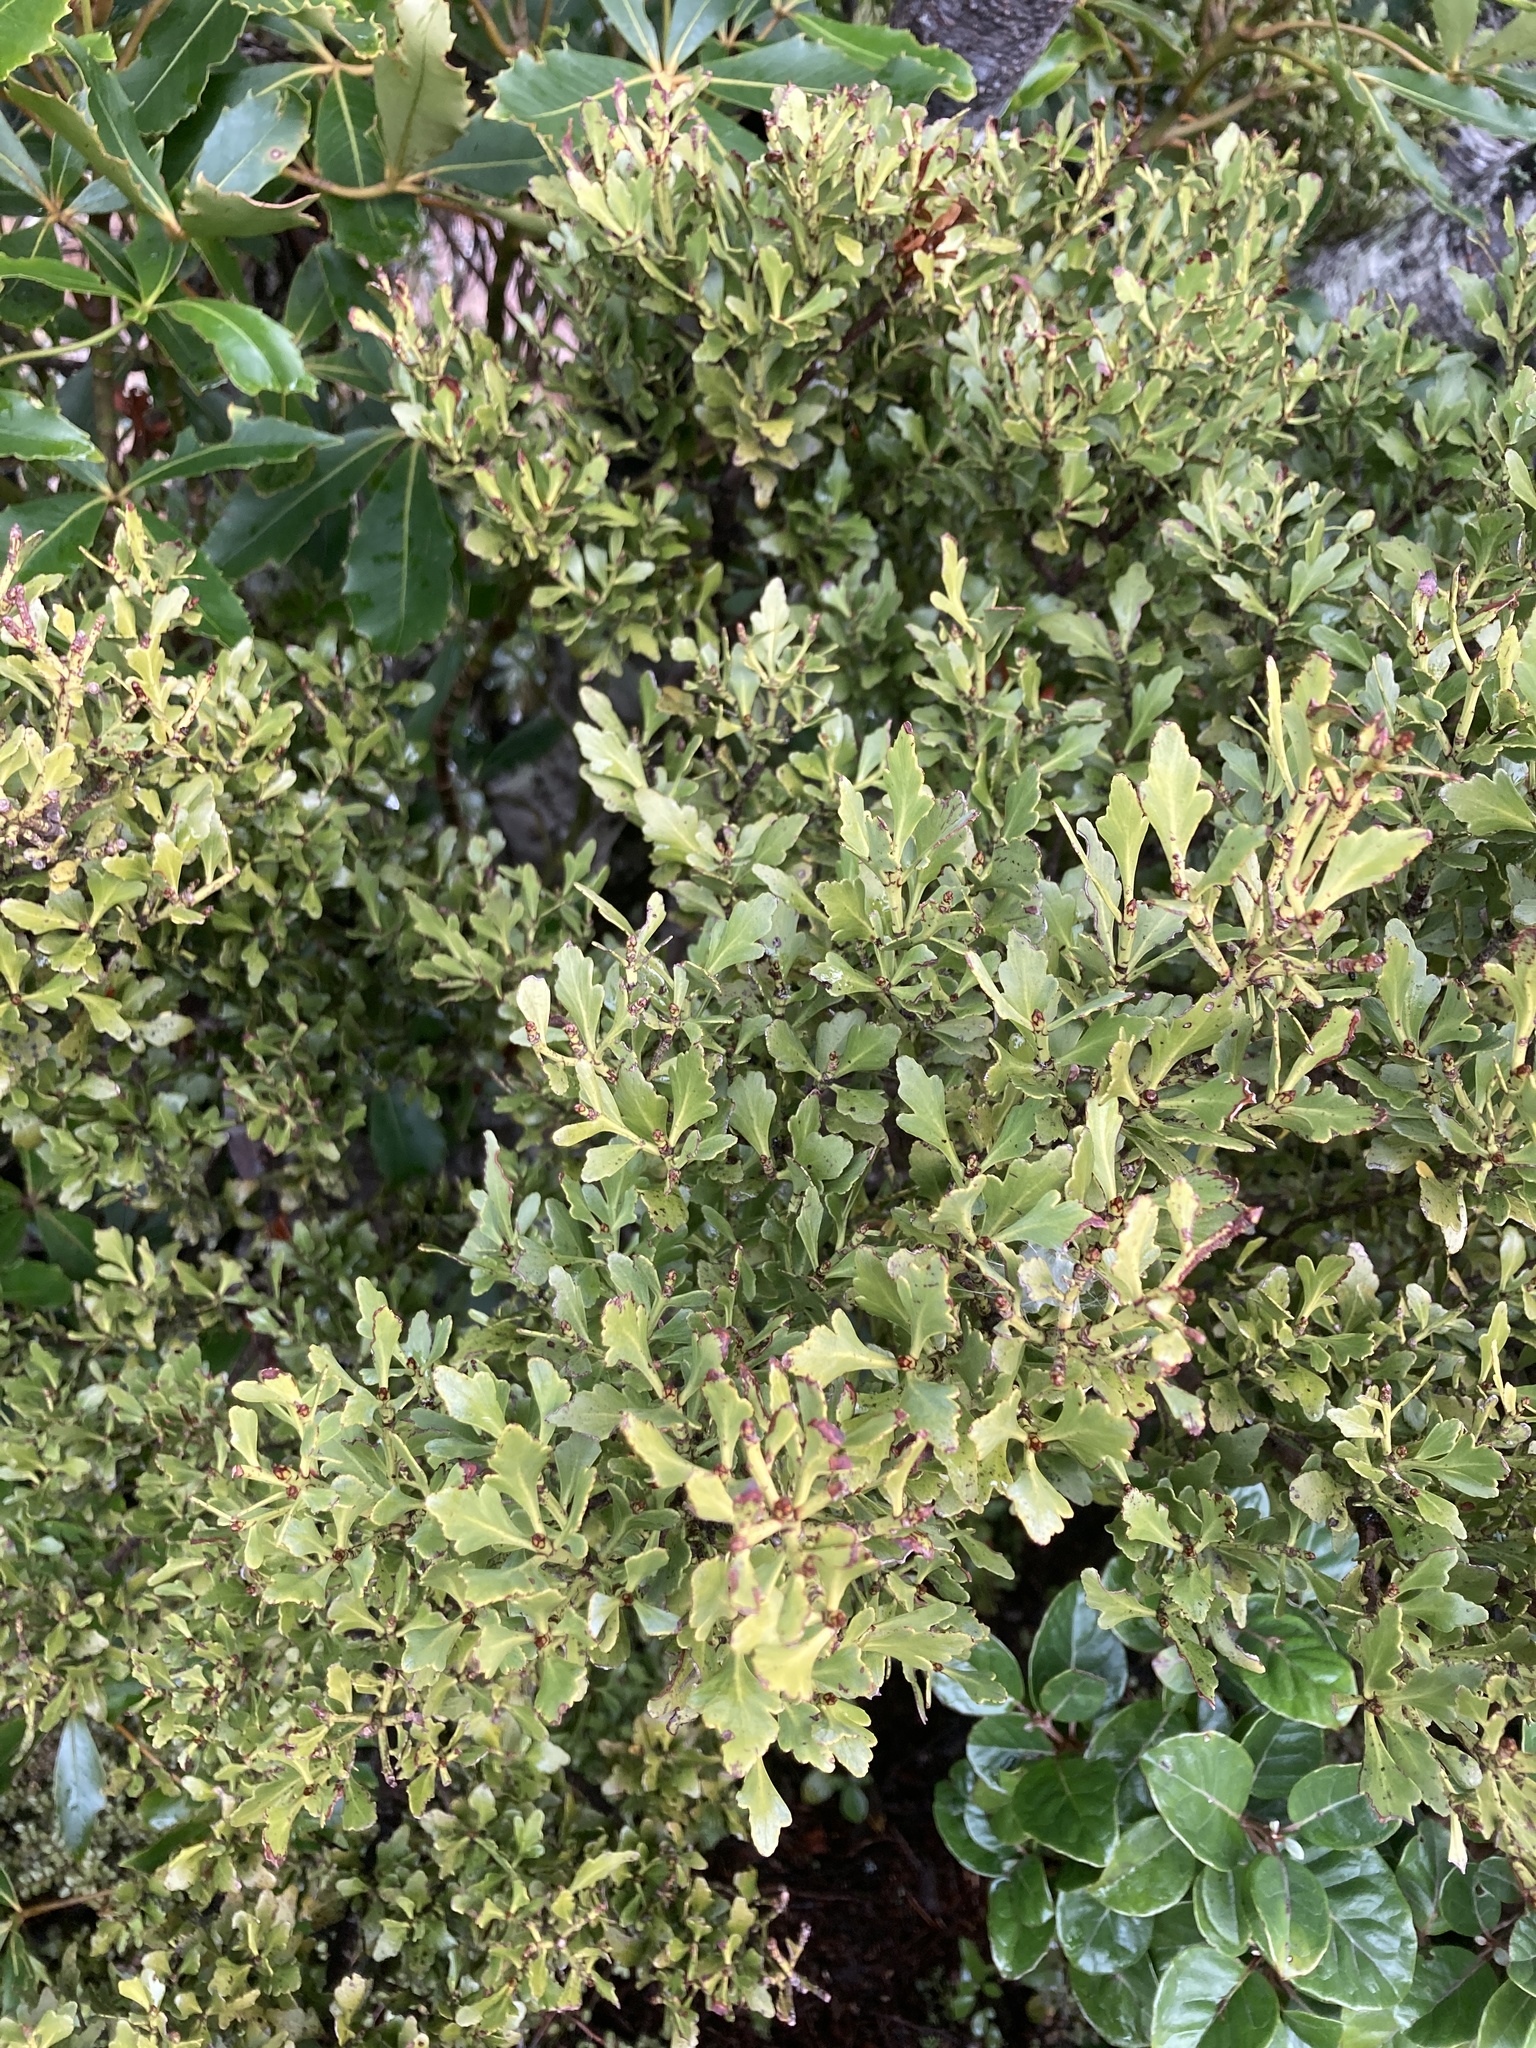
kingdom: Plantae
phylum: Tracheophyta
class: Pinopsida
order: Pinales
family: Phyllocladaceae
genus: Phyllocladus
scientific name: Phyllocladus trichomanoides
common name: Celery pine
